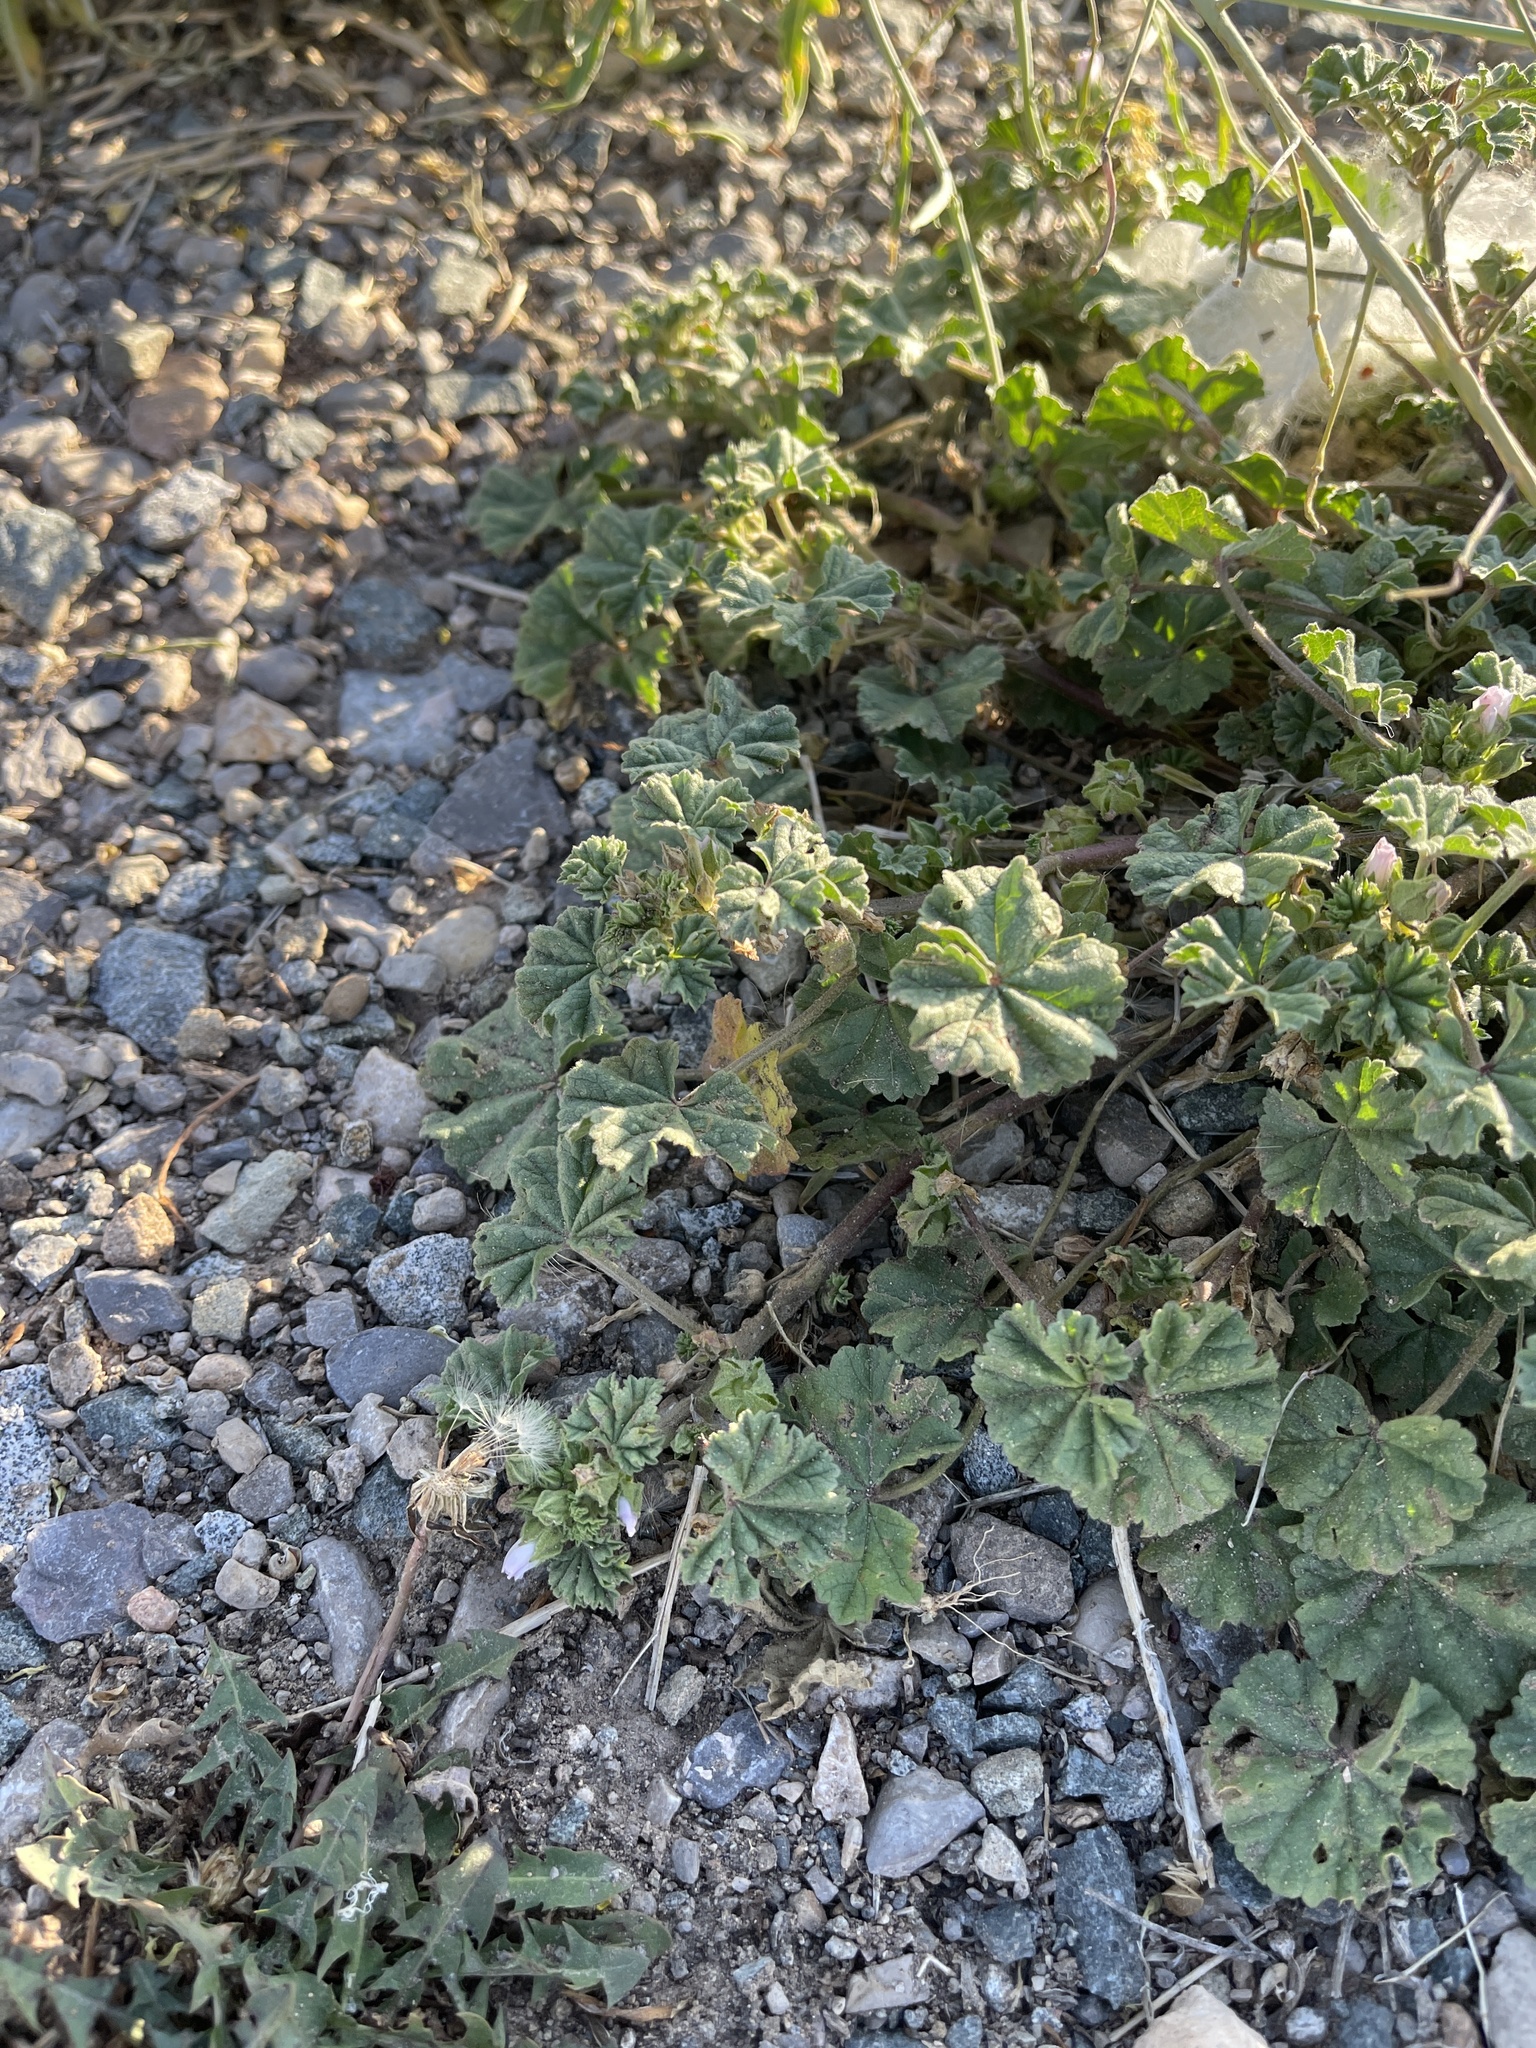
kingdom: Plantae
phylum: Tracheophyta
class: Magnoliopsida
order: Malvales
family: Malvaceae
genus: Malva
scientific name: Malva parviflora
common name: Least mallow
